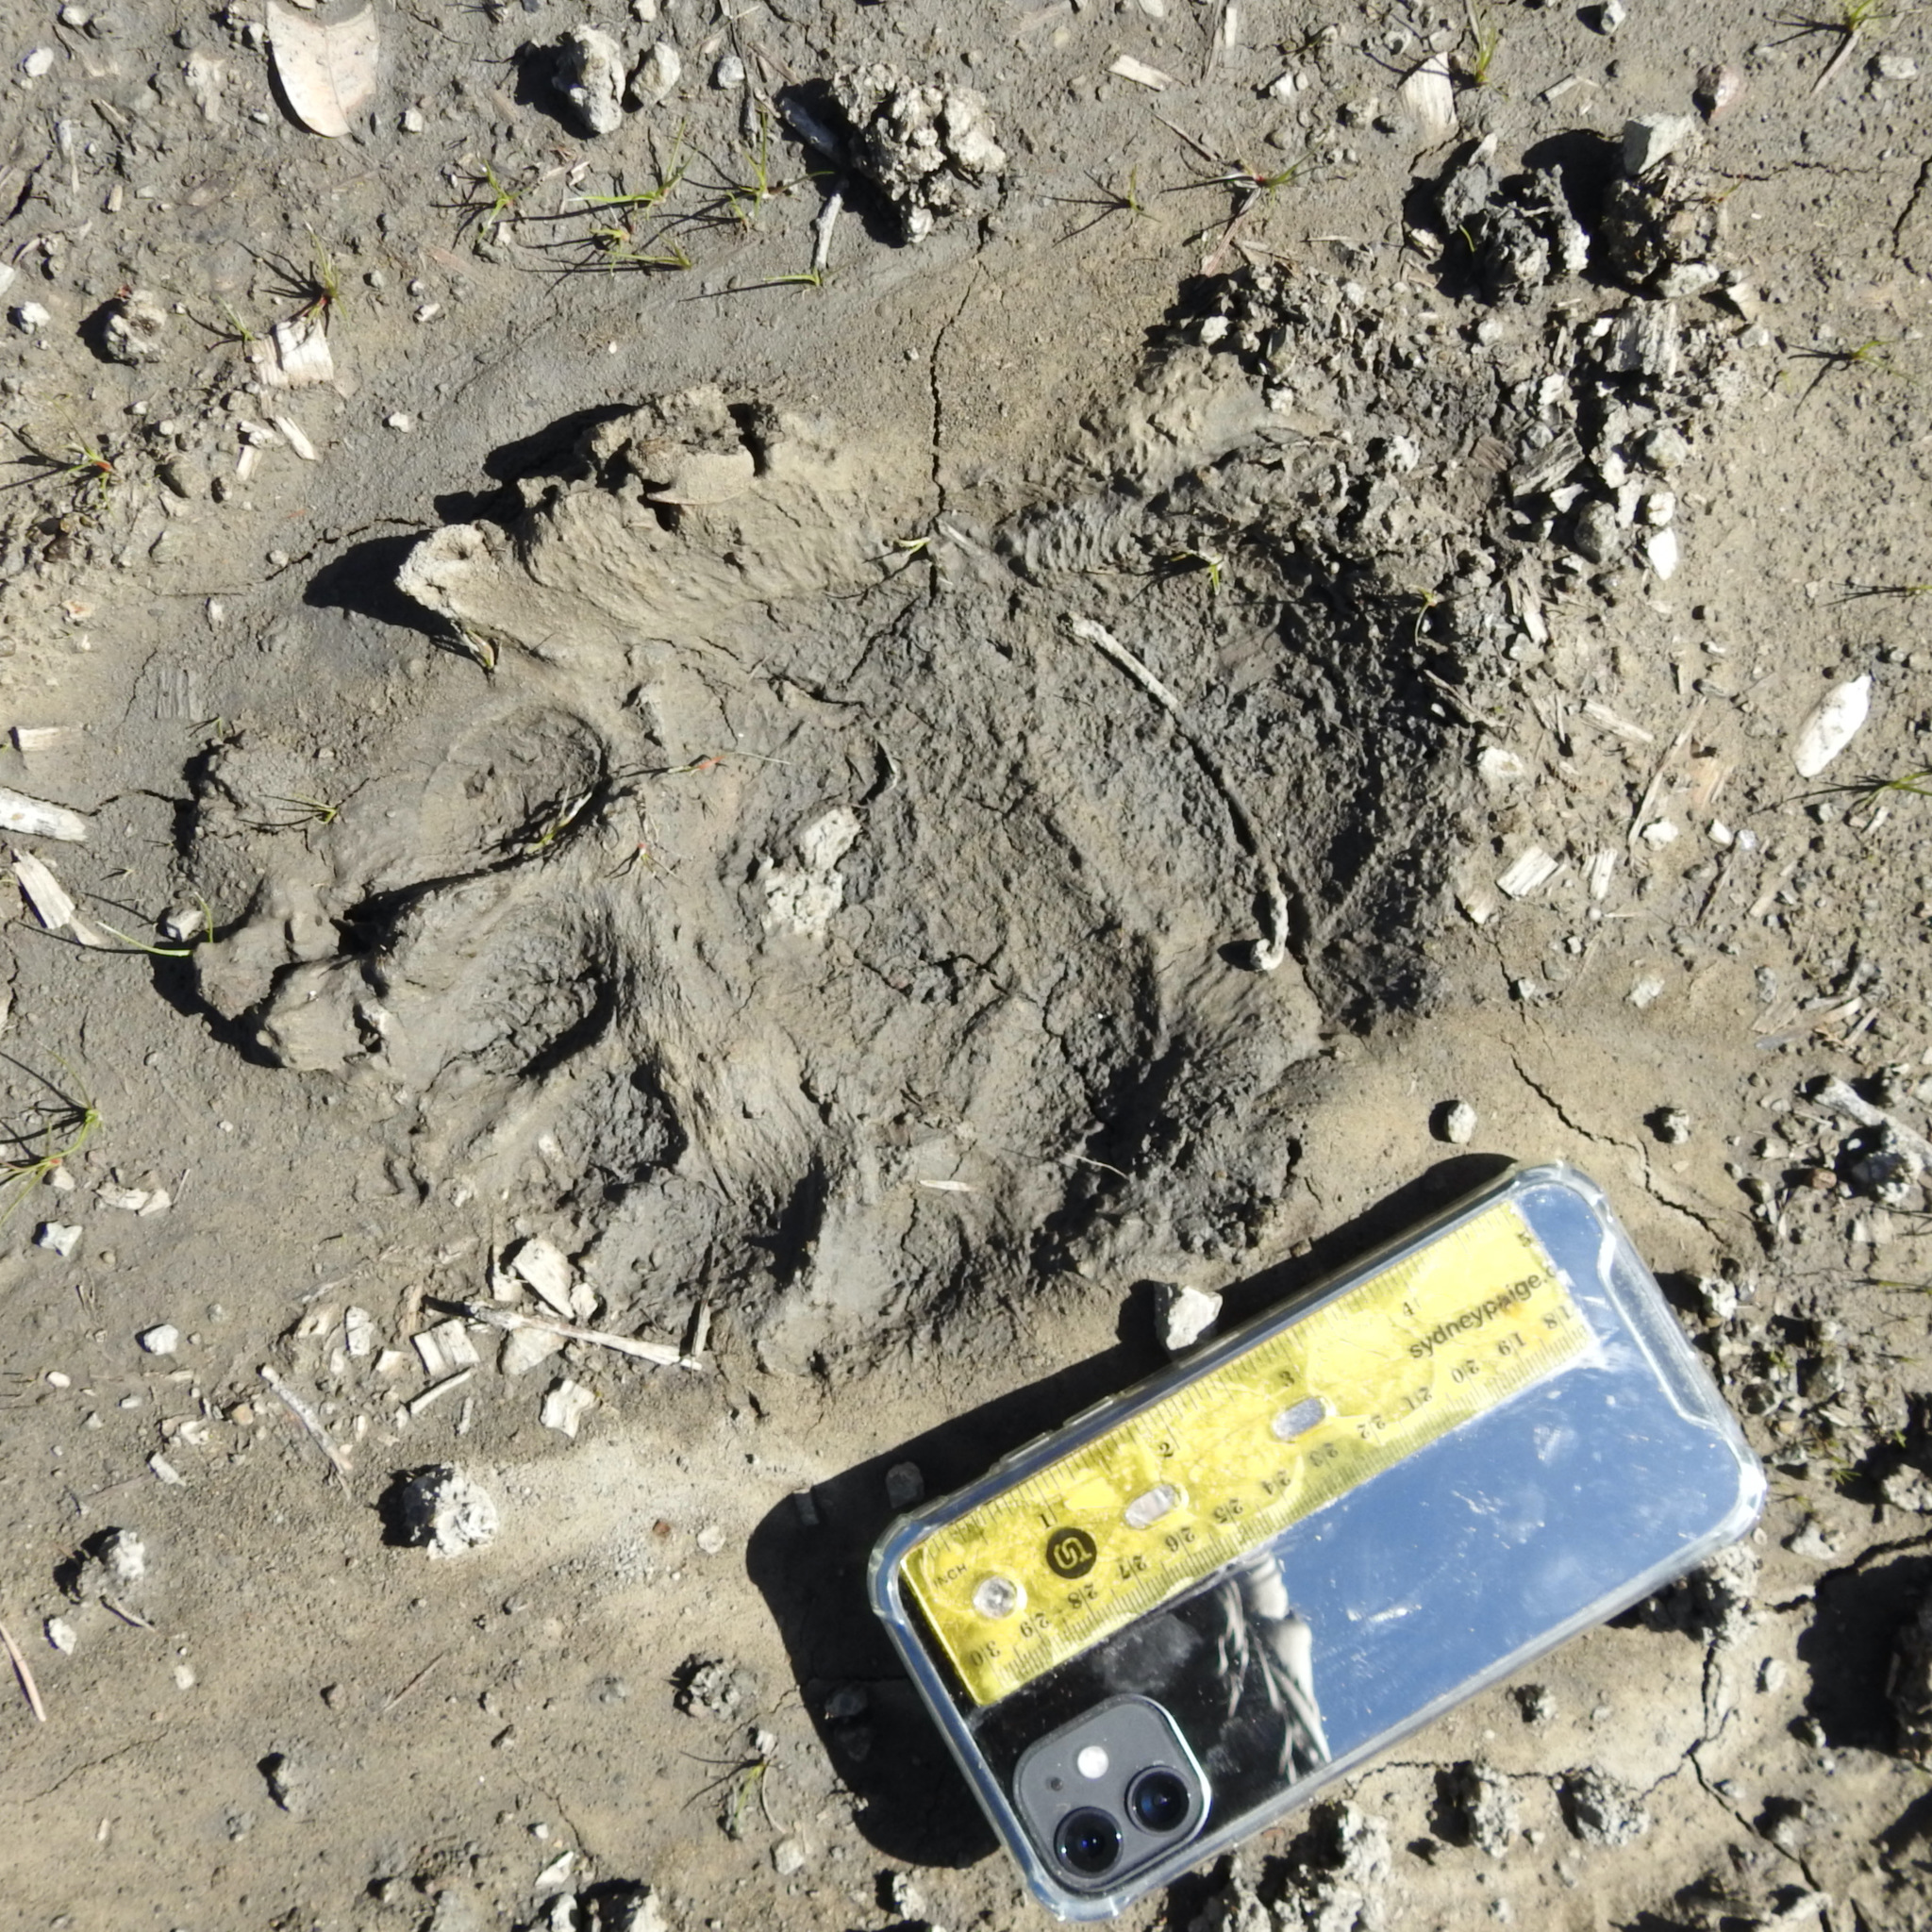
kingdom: Animalia
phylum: Chordata
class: Mammalia
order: Carnivora
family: Ursidae
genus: Ursus
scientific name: Ursus americanus
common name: American black bear
